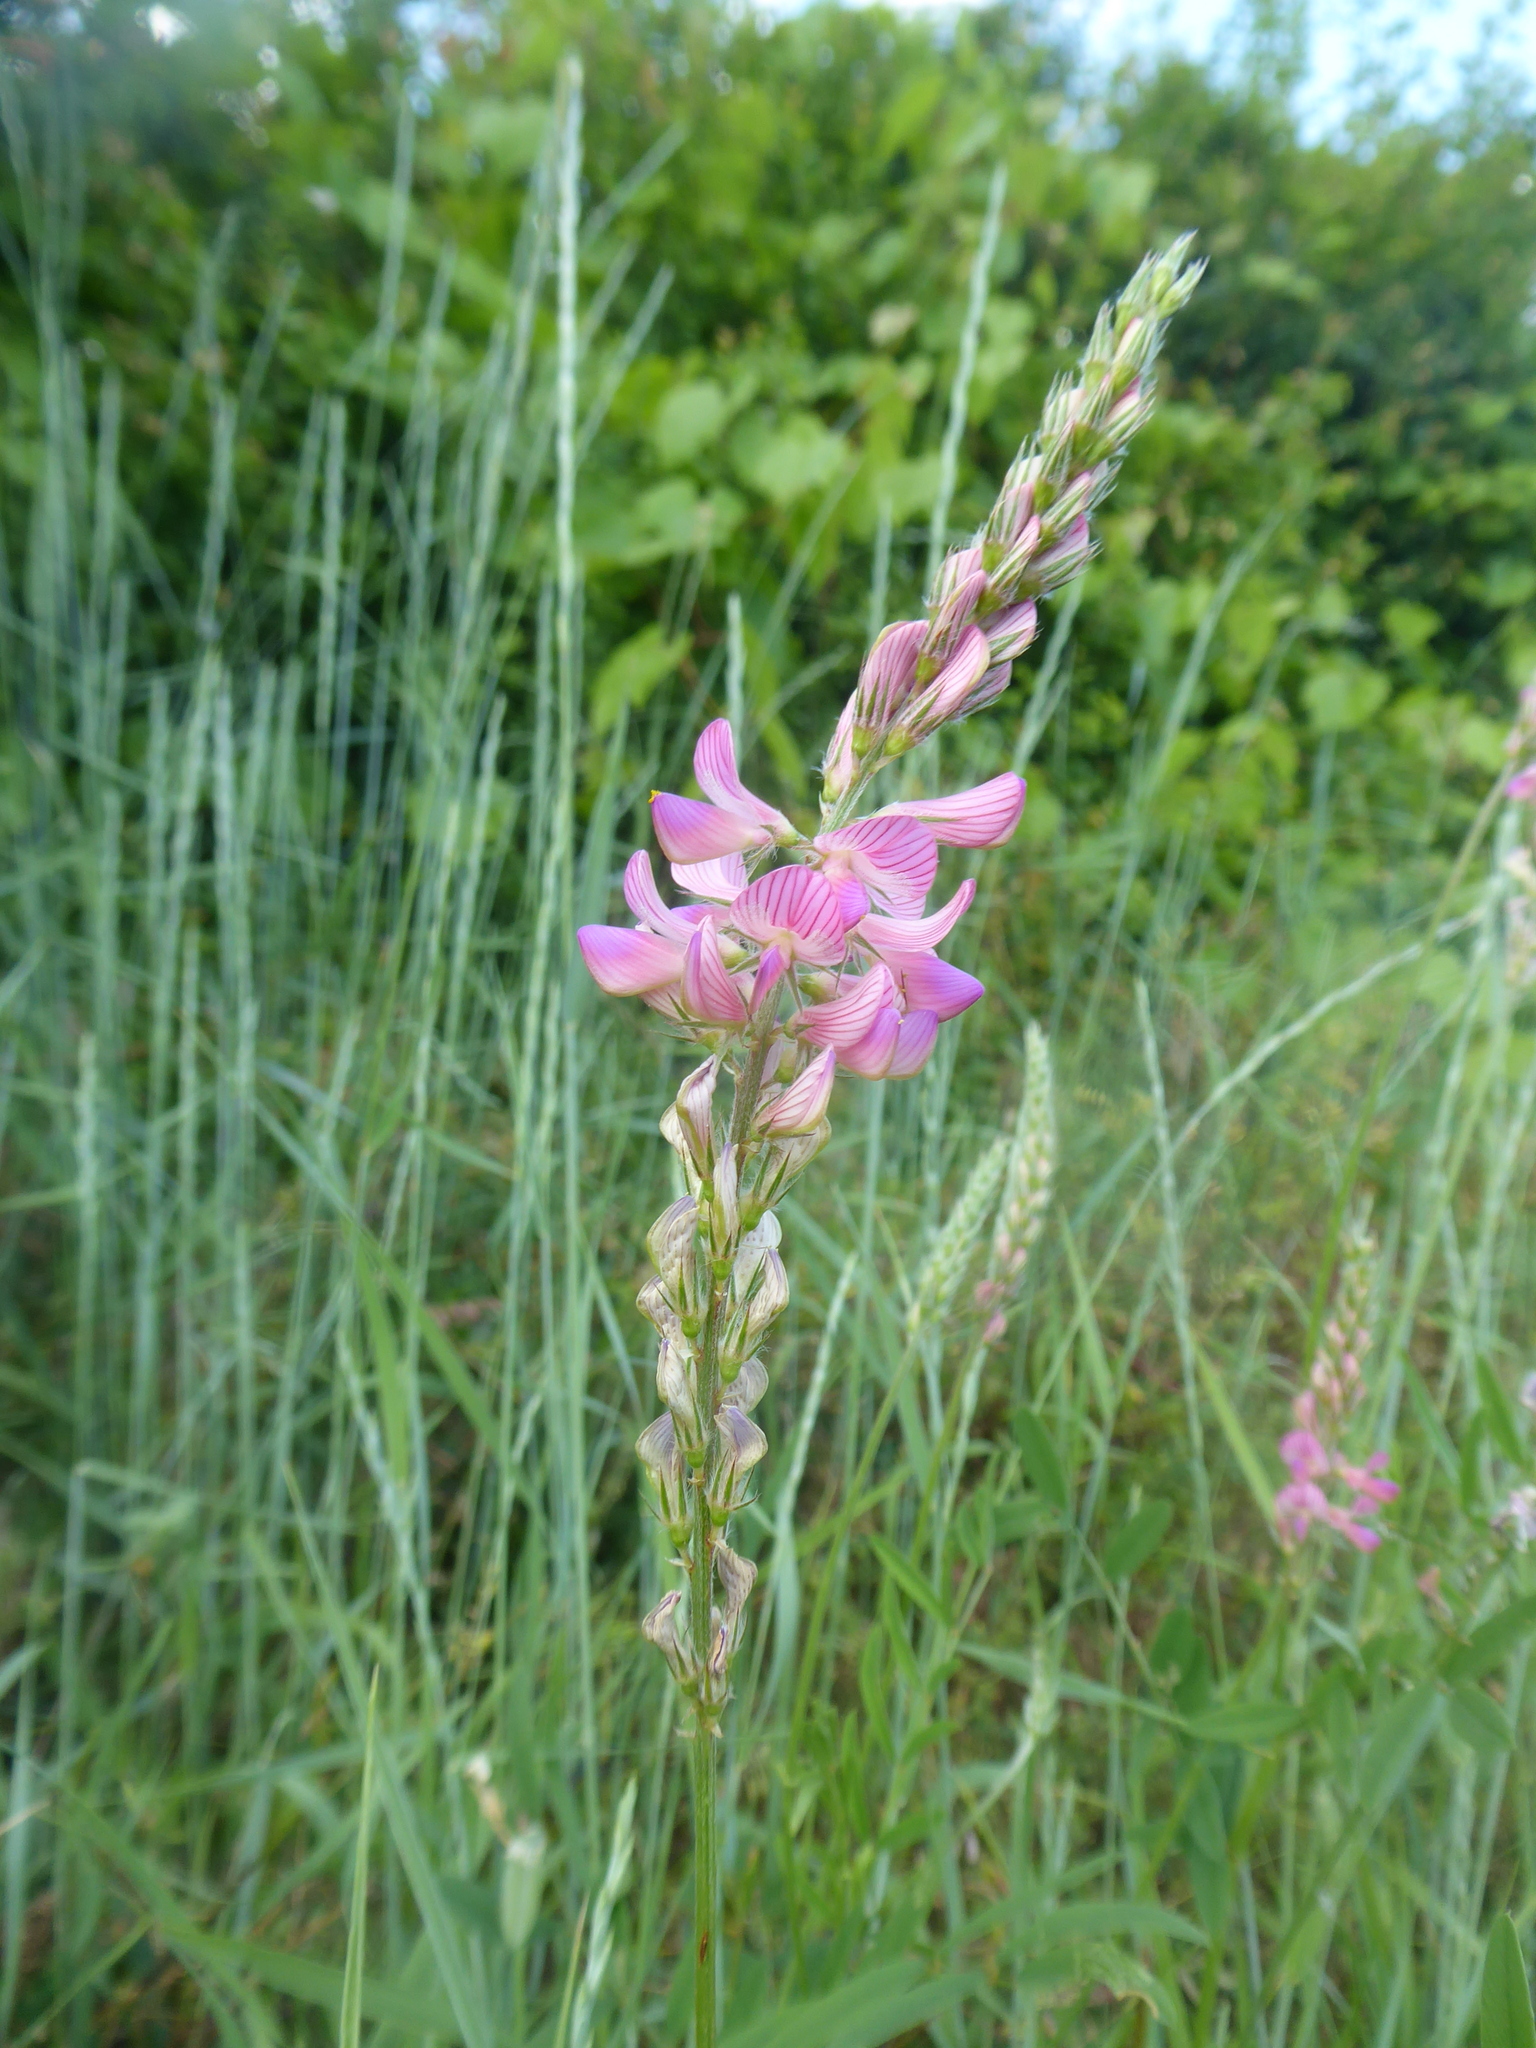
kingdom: Plantae
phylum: Tracheophyta
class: Magnoliopsida
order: Fabales
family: Fabaceae
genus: Onobrychis
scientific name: Onobrychis viciifolia
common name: Sainfoin
